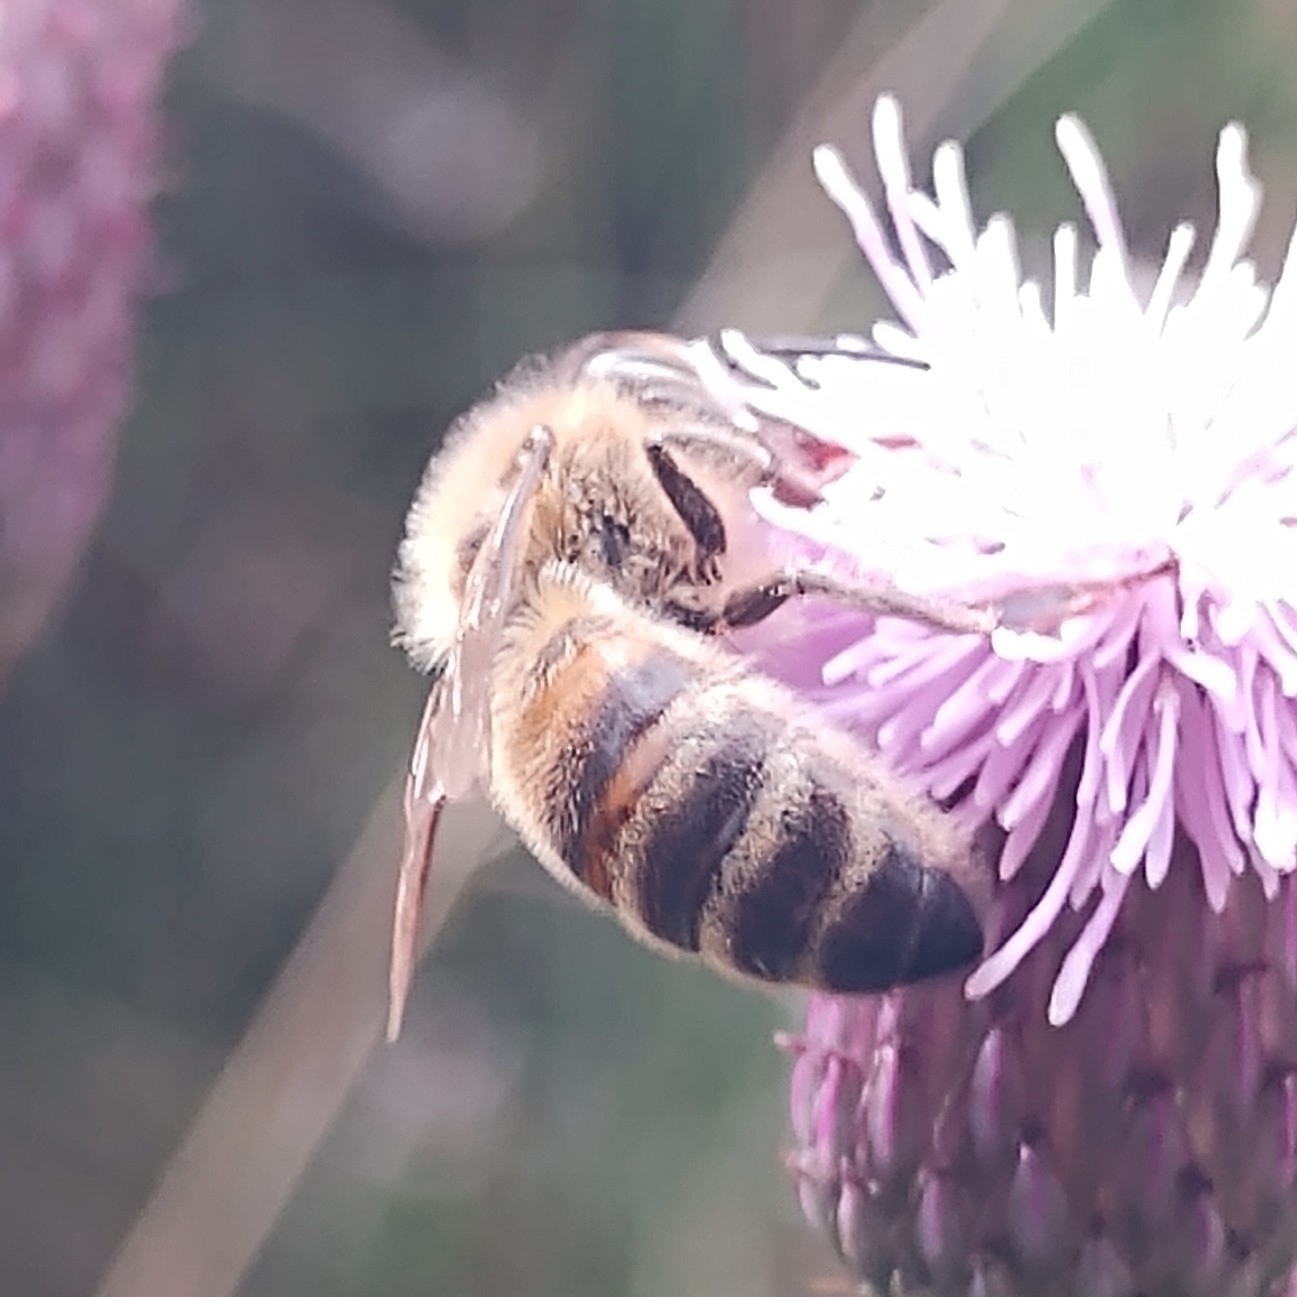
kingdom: Animalia
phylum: Arthropoda
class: Insecta
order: Hymenoptera
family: Apidae
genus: Apis
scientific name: Apis mellifera
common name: Honey bee
